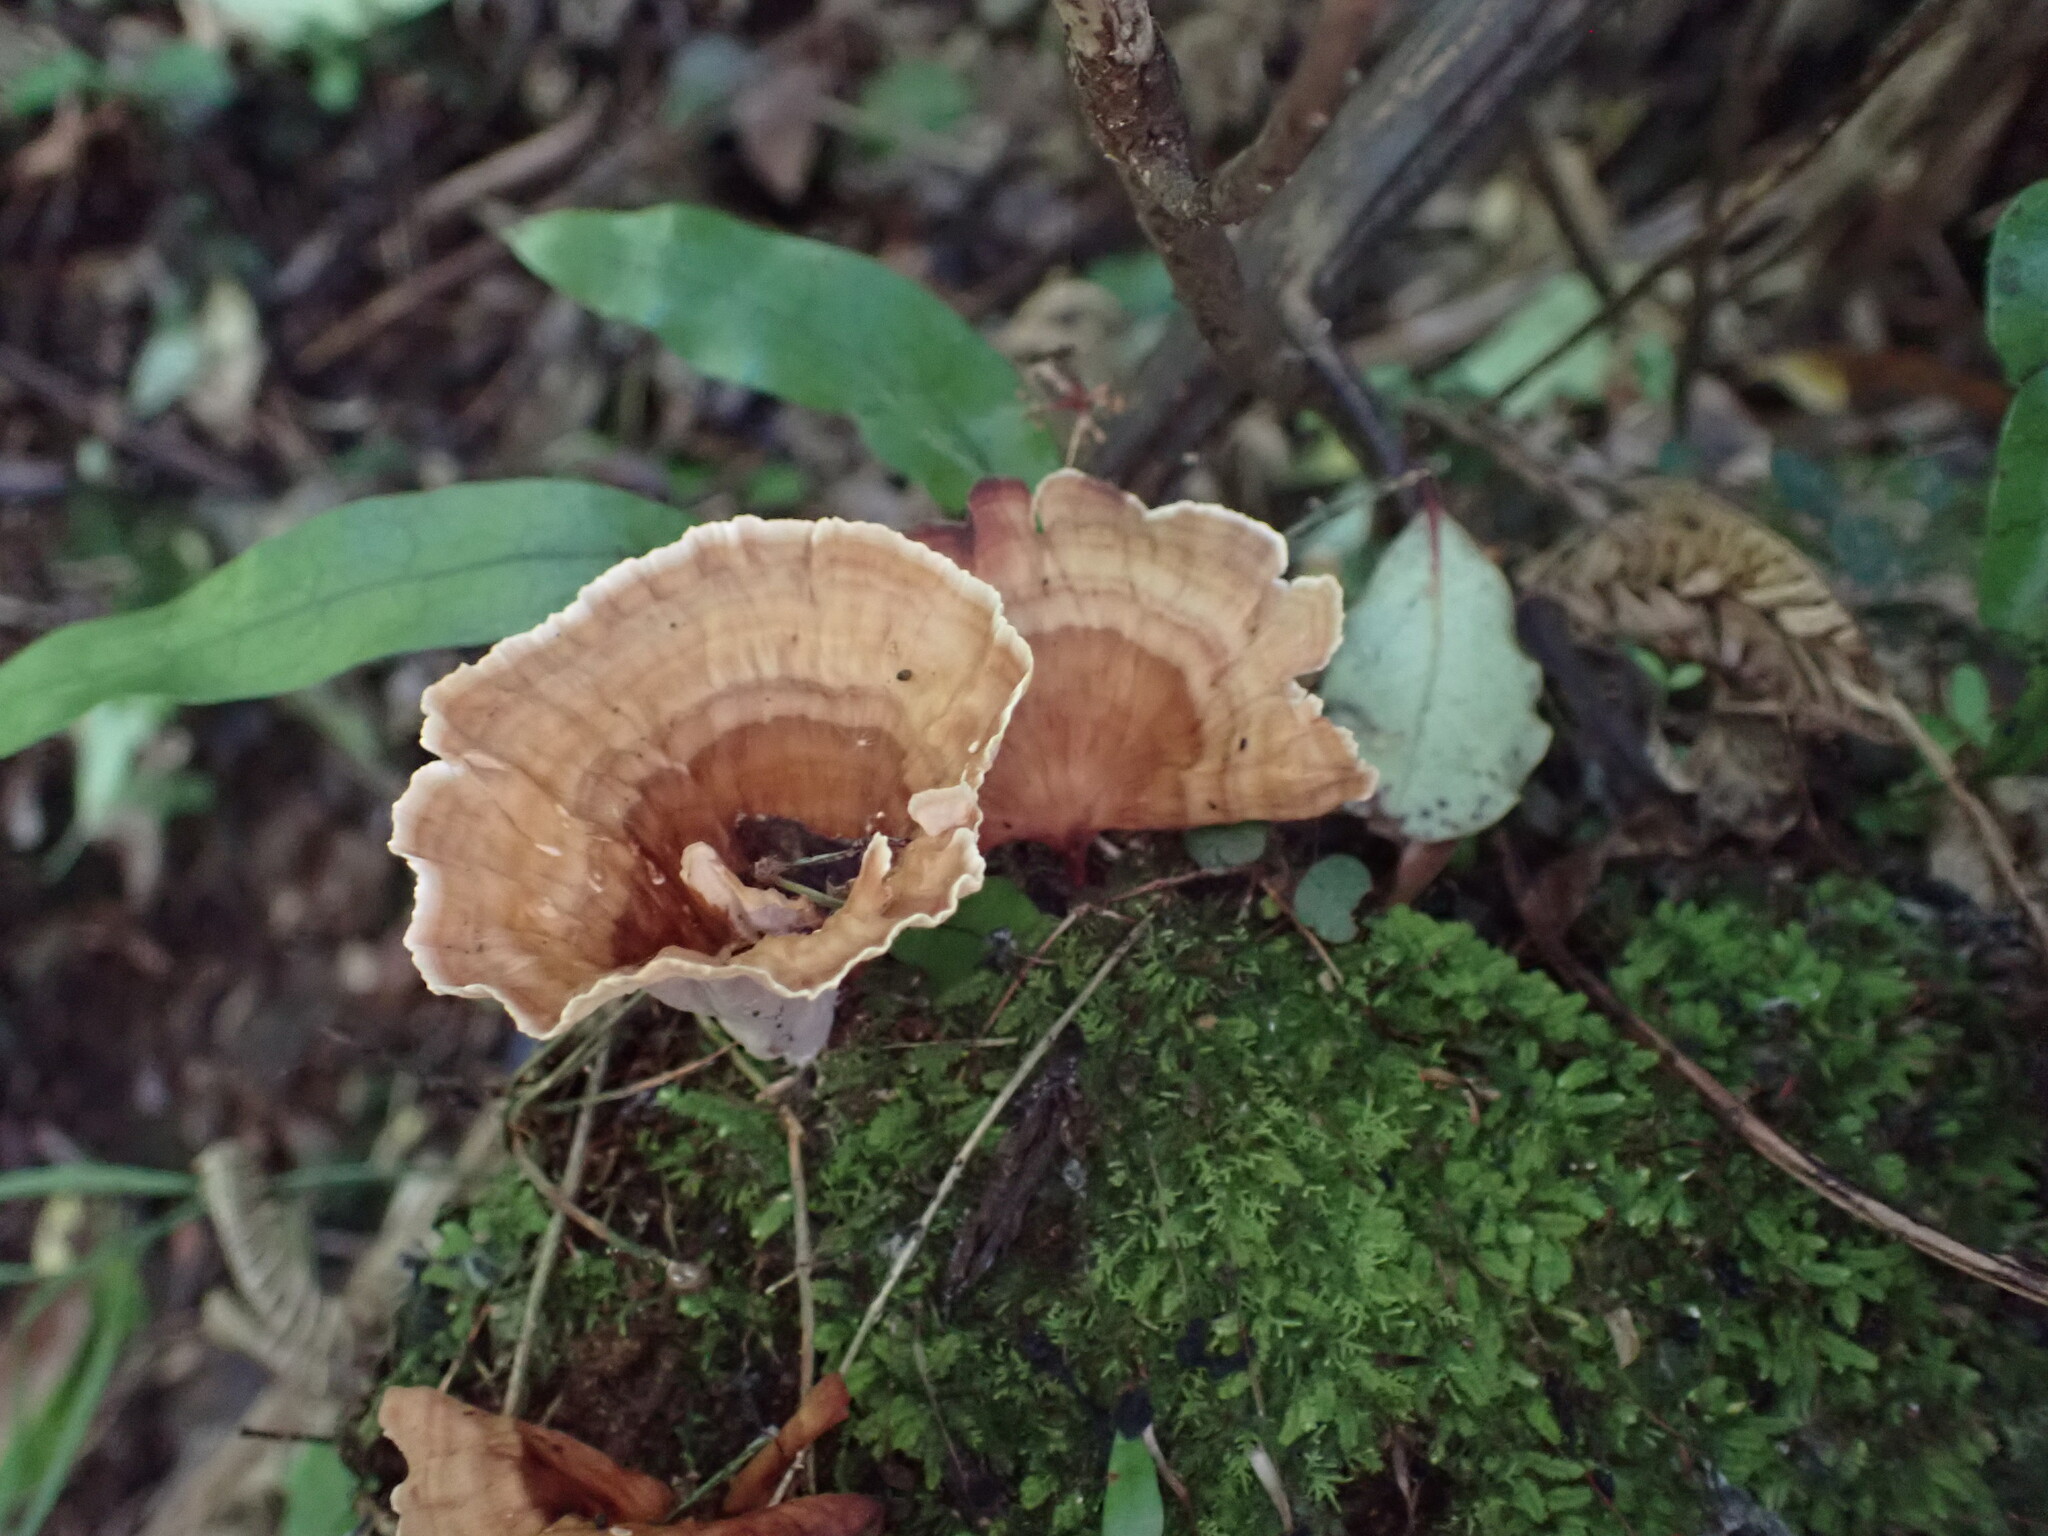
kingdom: Fungi
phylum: Basidiomycota
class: Agaricomycetes
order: Polyporales
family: Podoscyphaceae
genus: Podoscypha
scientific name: Podoscypha petalodes
